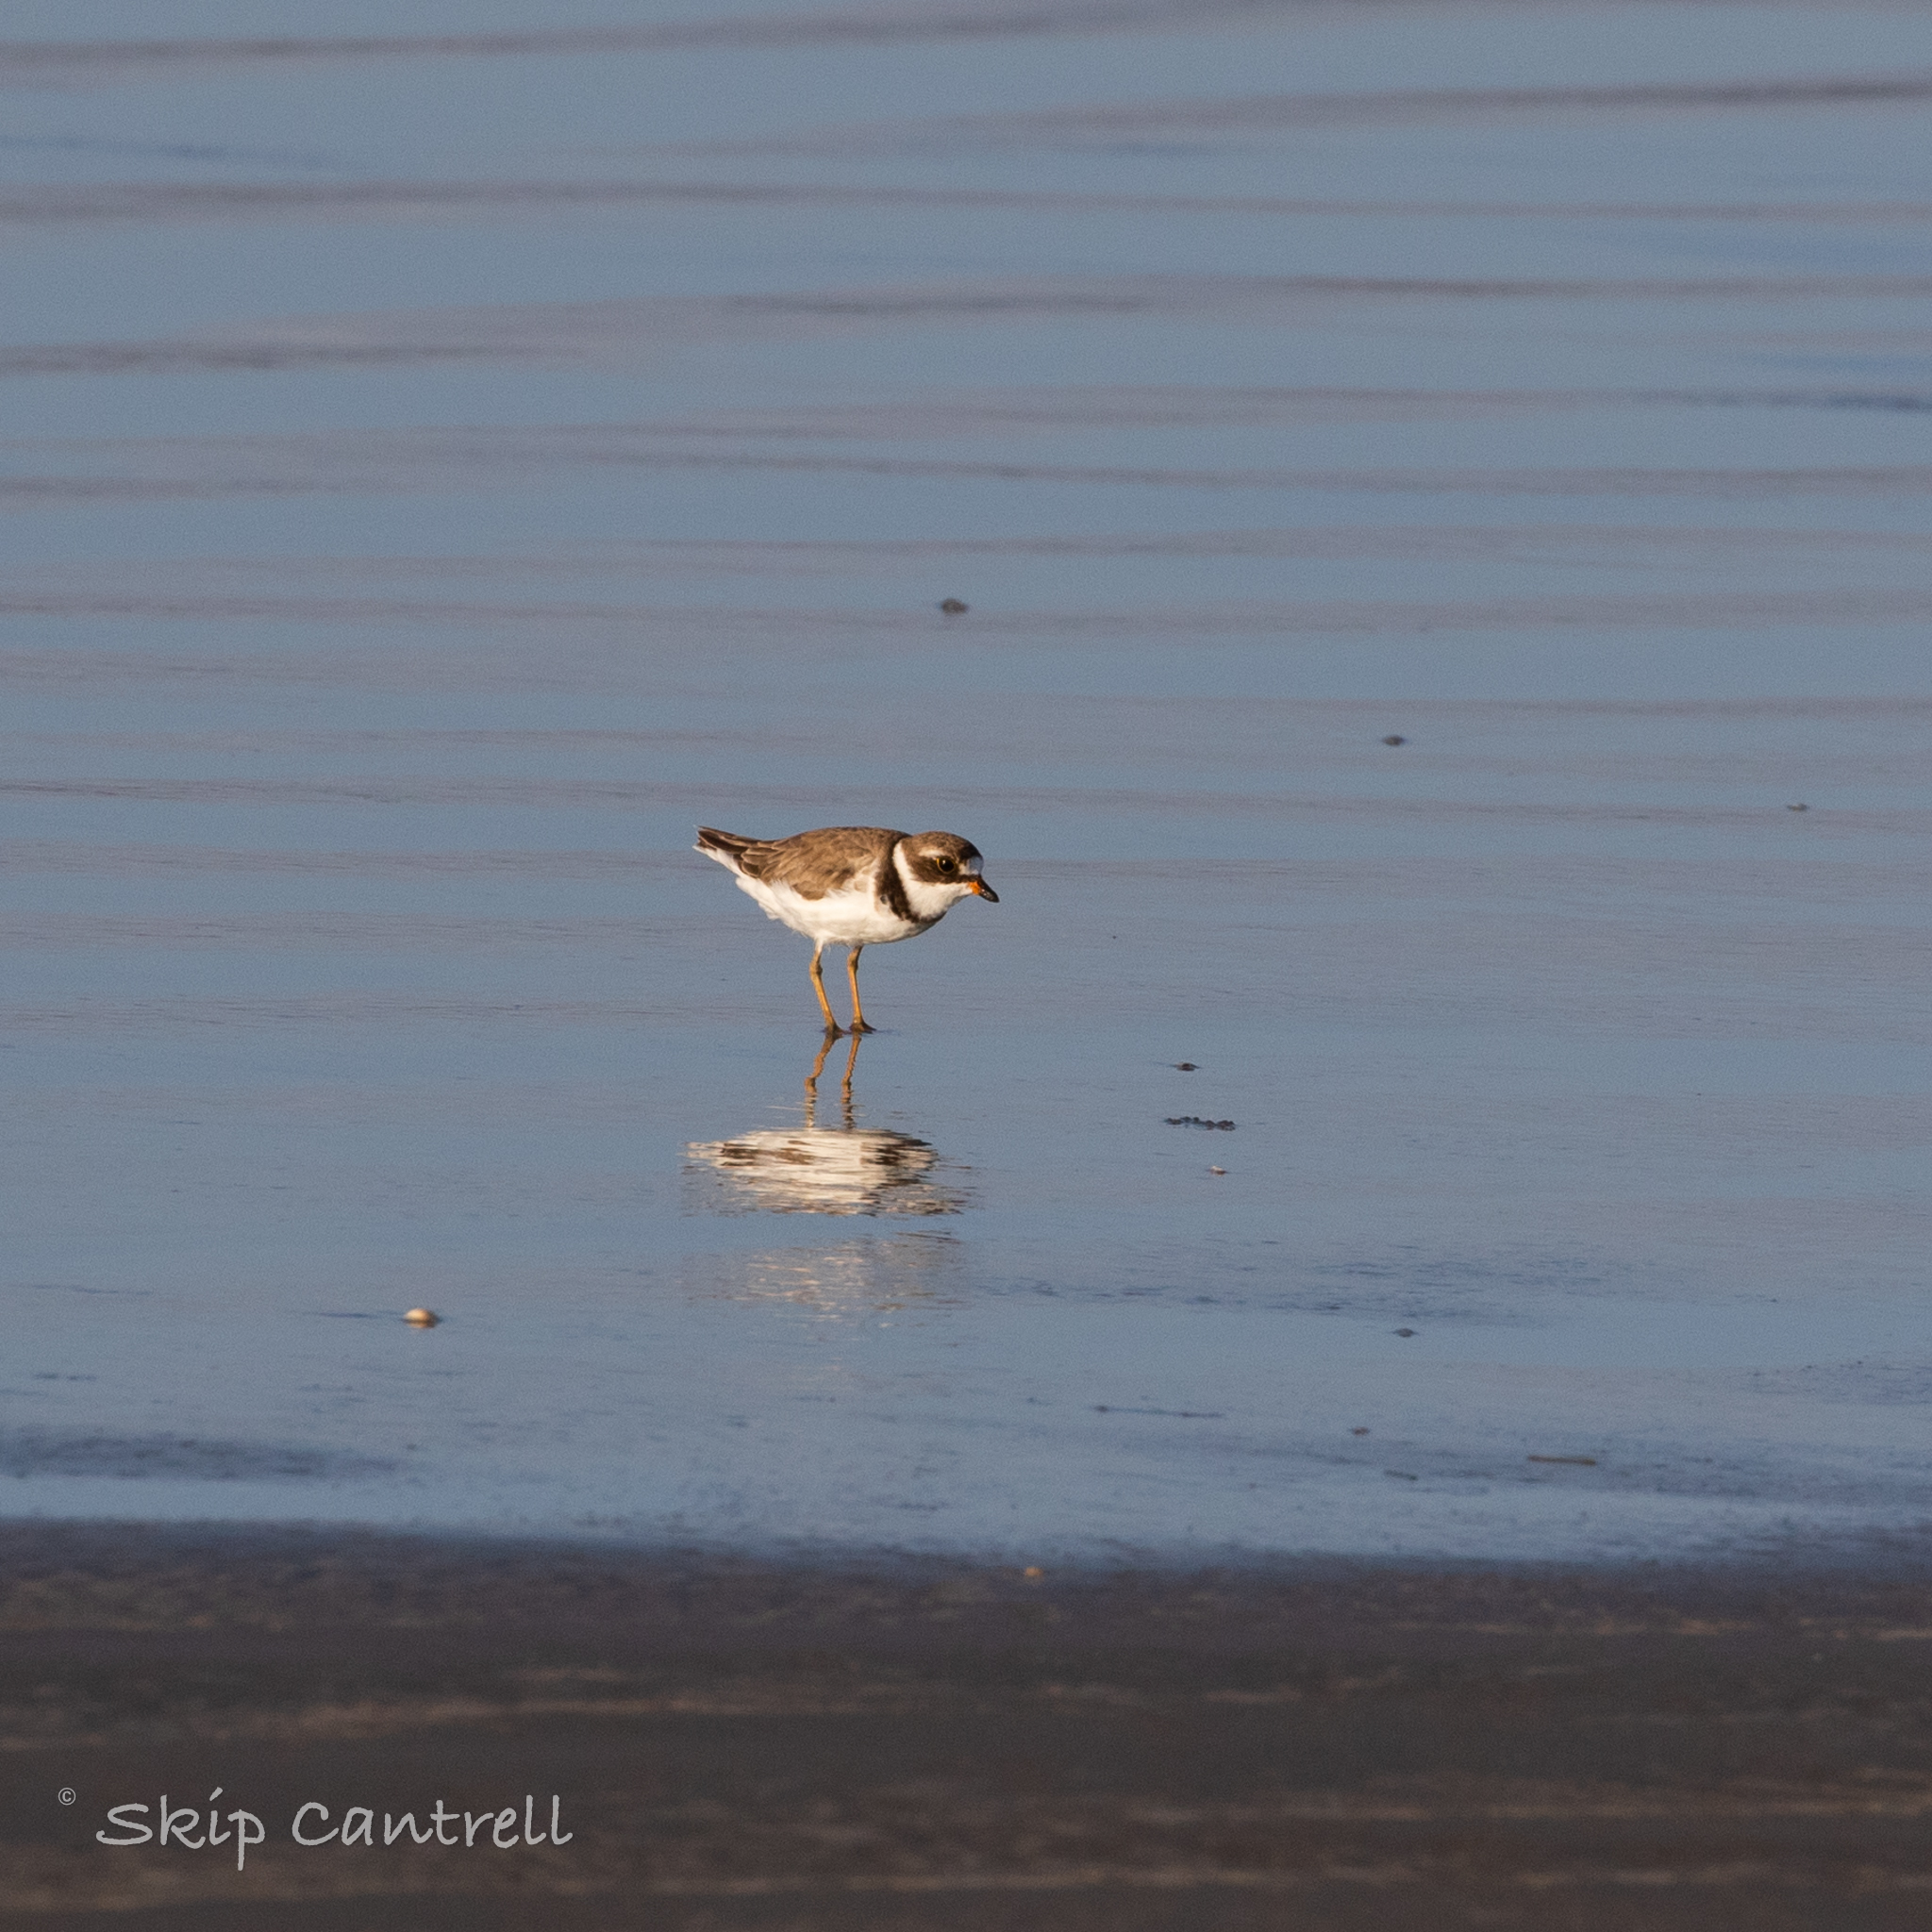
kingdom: Animalia
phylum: Chordata
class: Aves
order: Charadriiformes
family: Charadriidae
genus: Charadrius
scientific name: Charadrius semipalmatus
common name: Semipalmated plover
